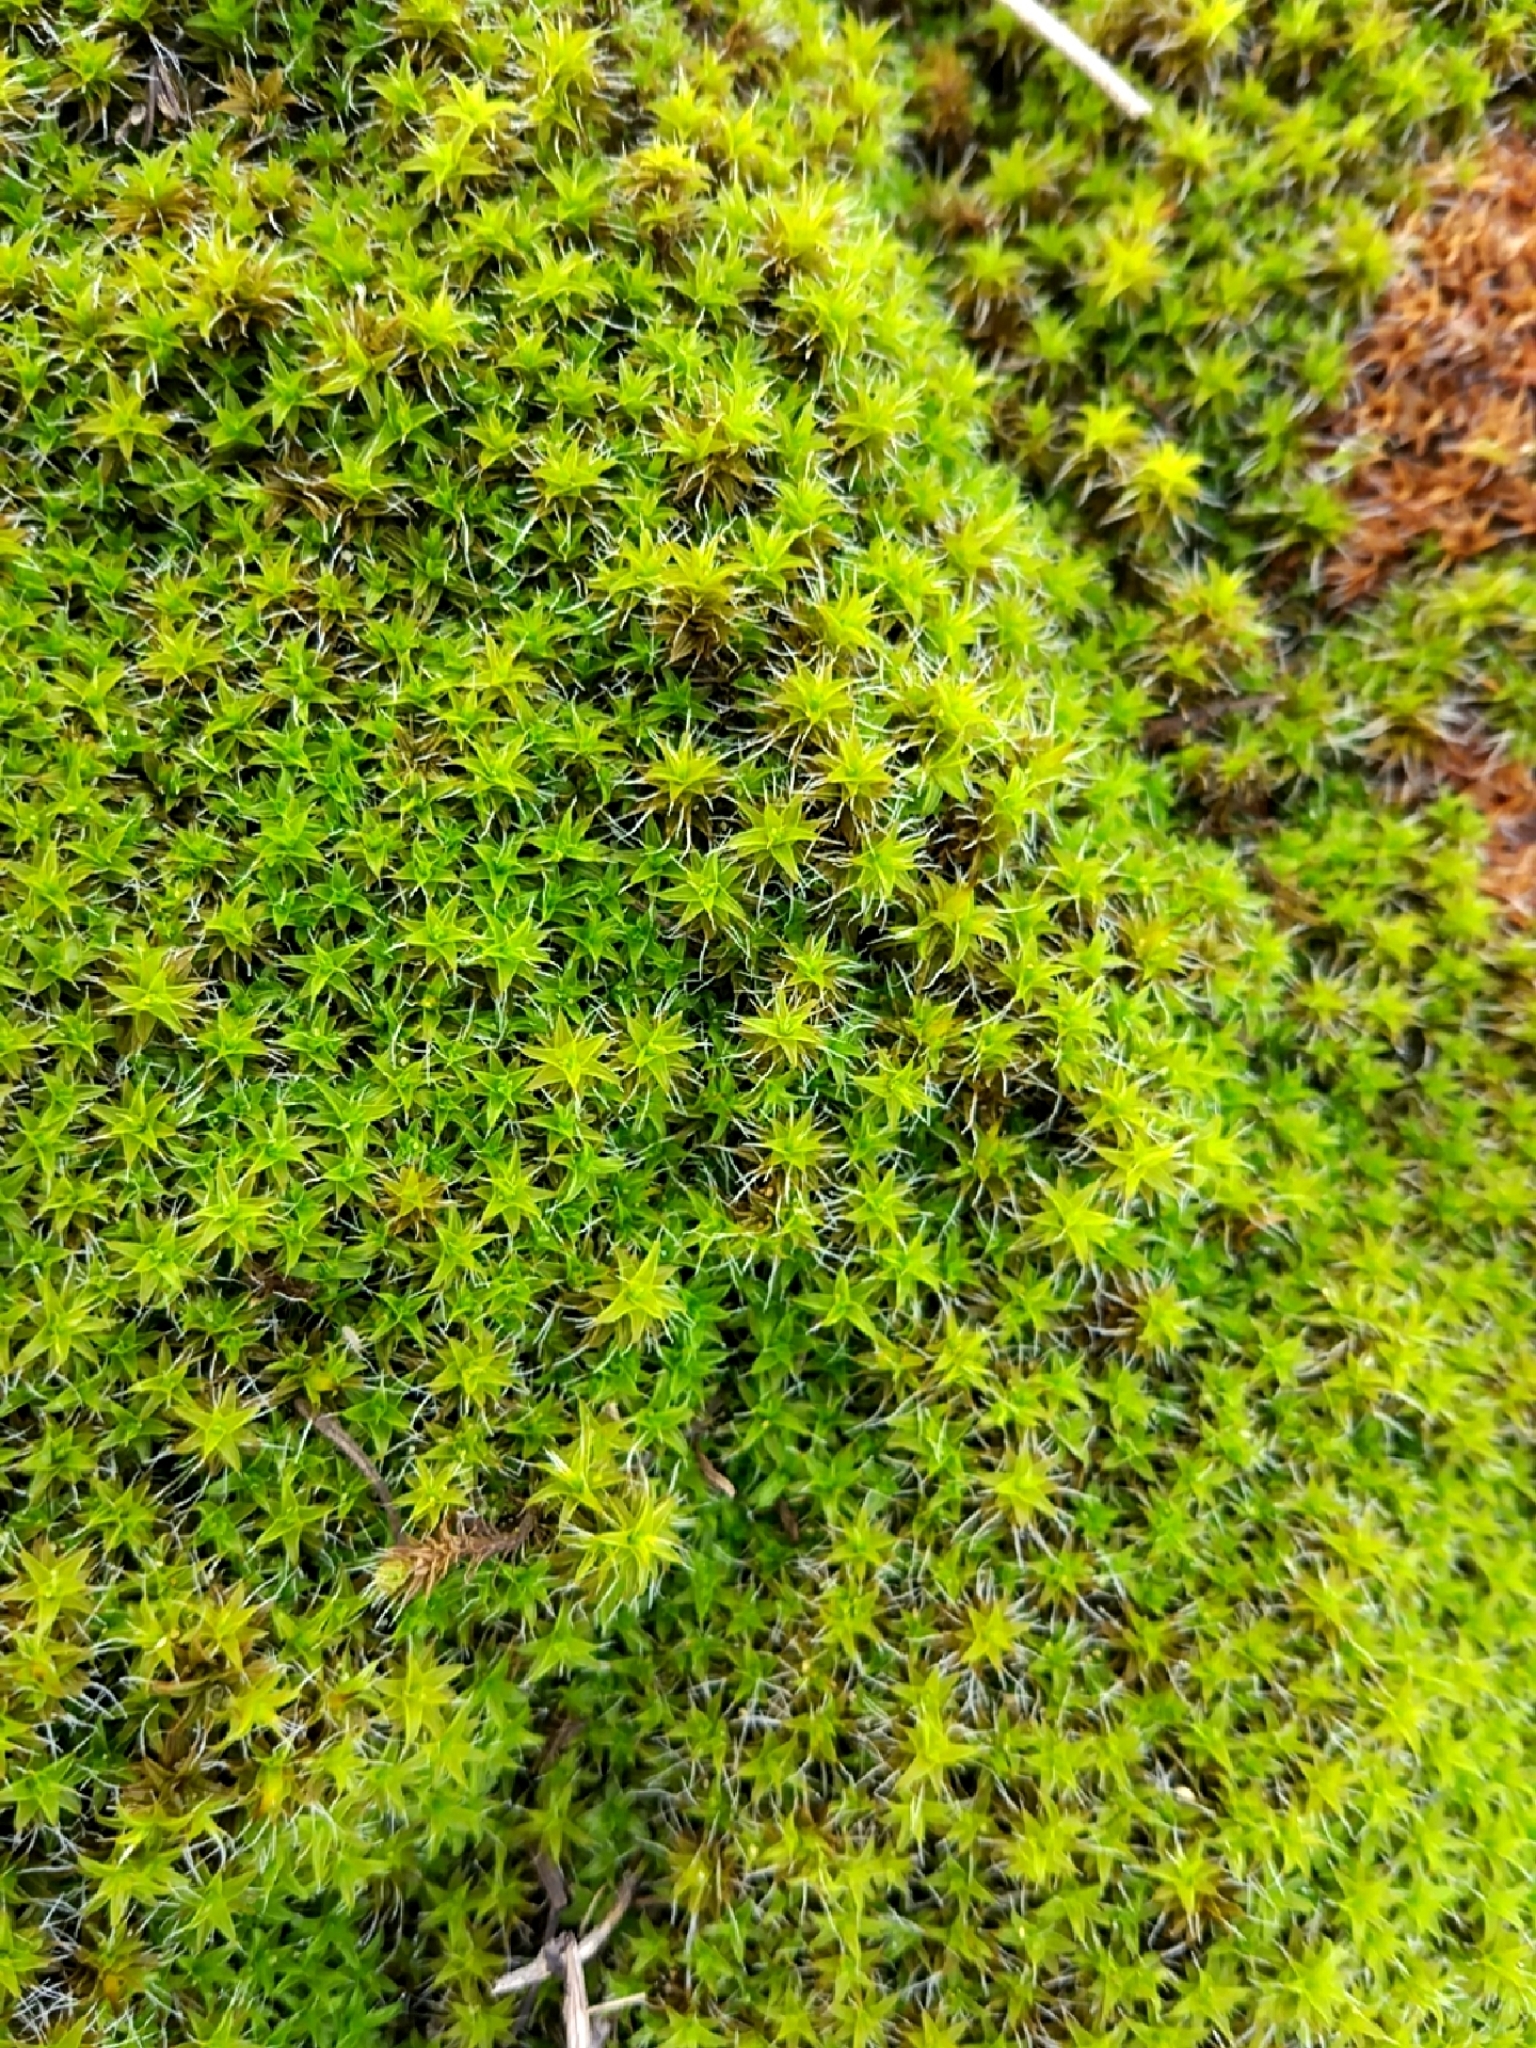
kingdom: Plantae
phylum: Bryophyta
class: Bryopsida
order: Pottiales
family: Pottiaceae
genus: Syntrichia
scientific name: Syntrichia ruralis
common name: Sidewalk screw moss
